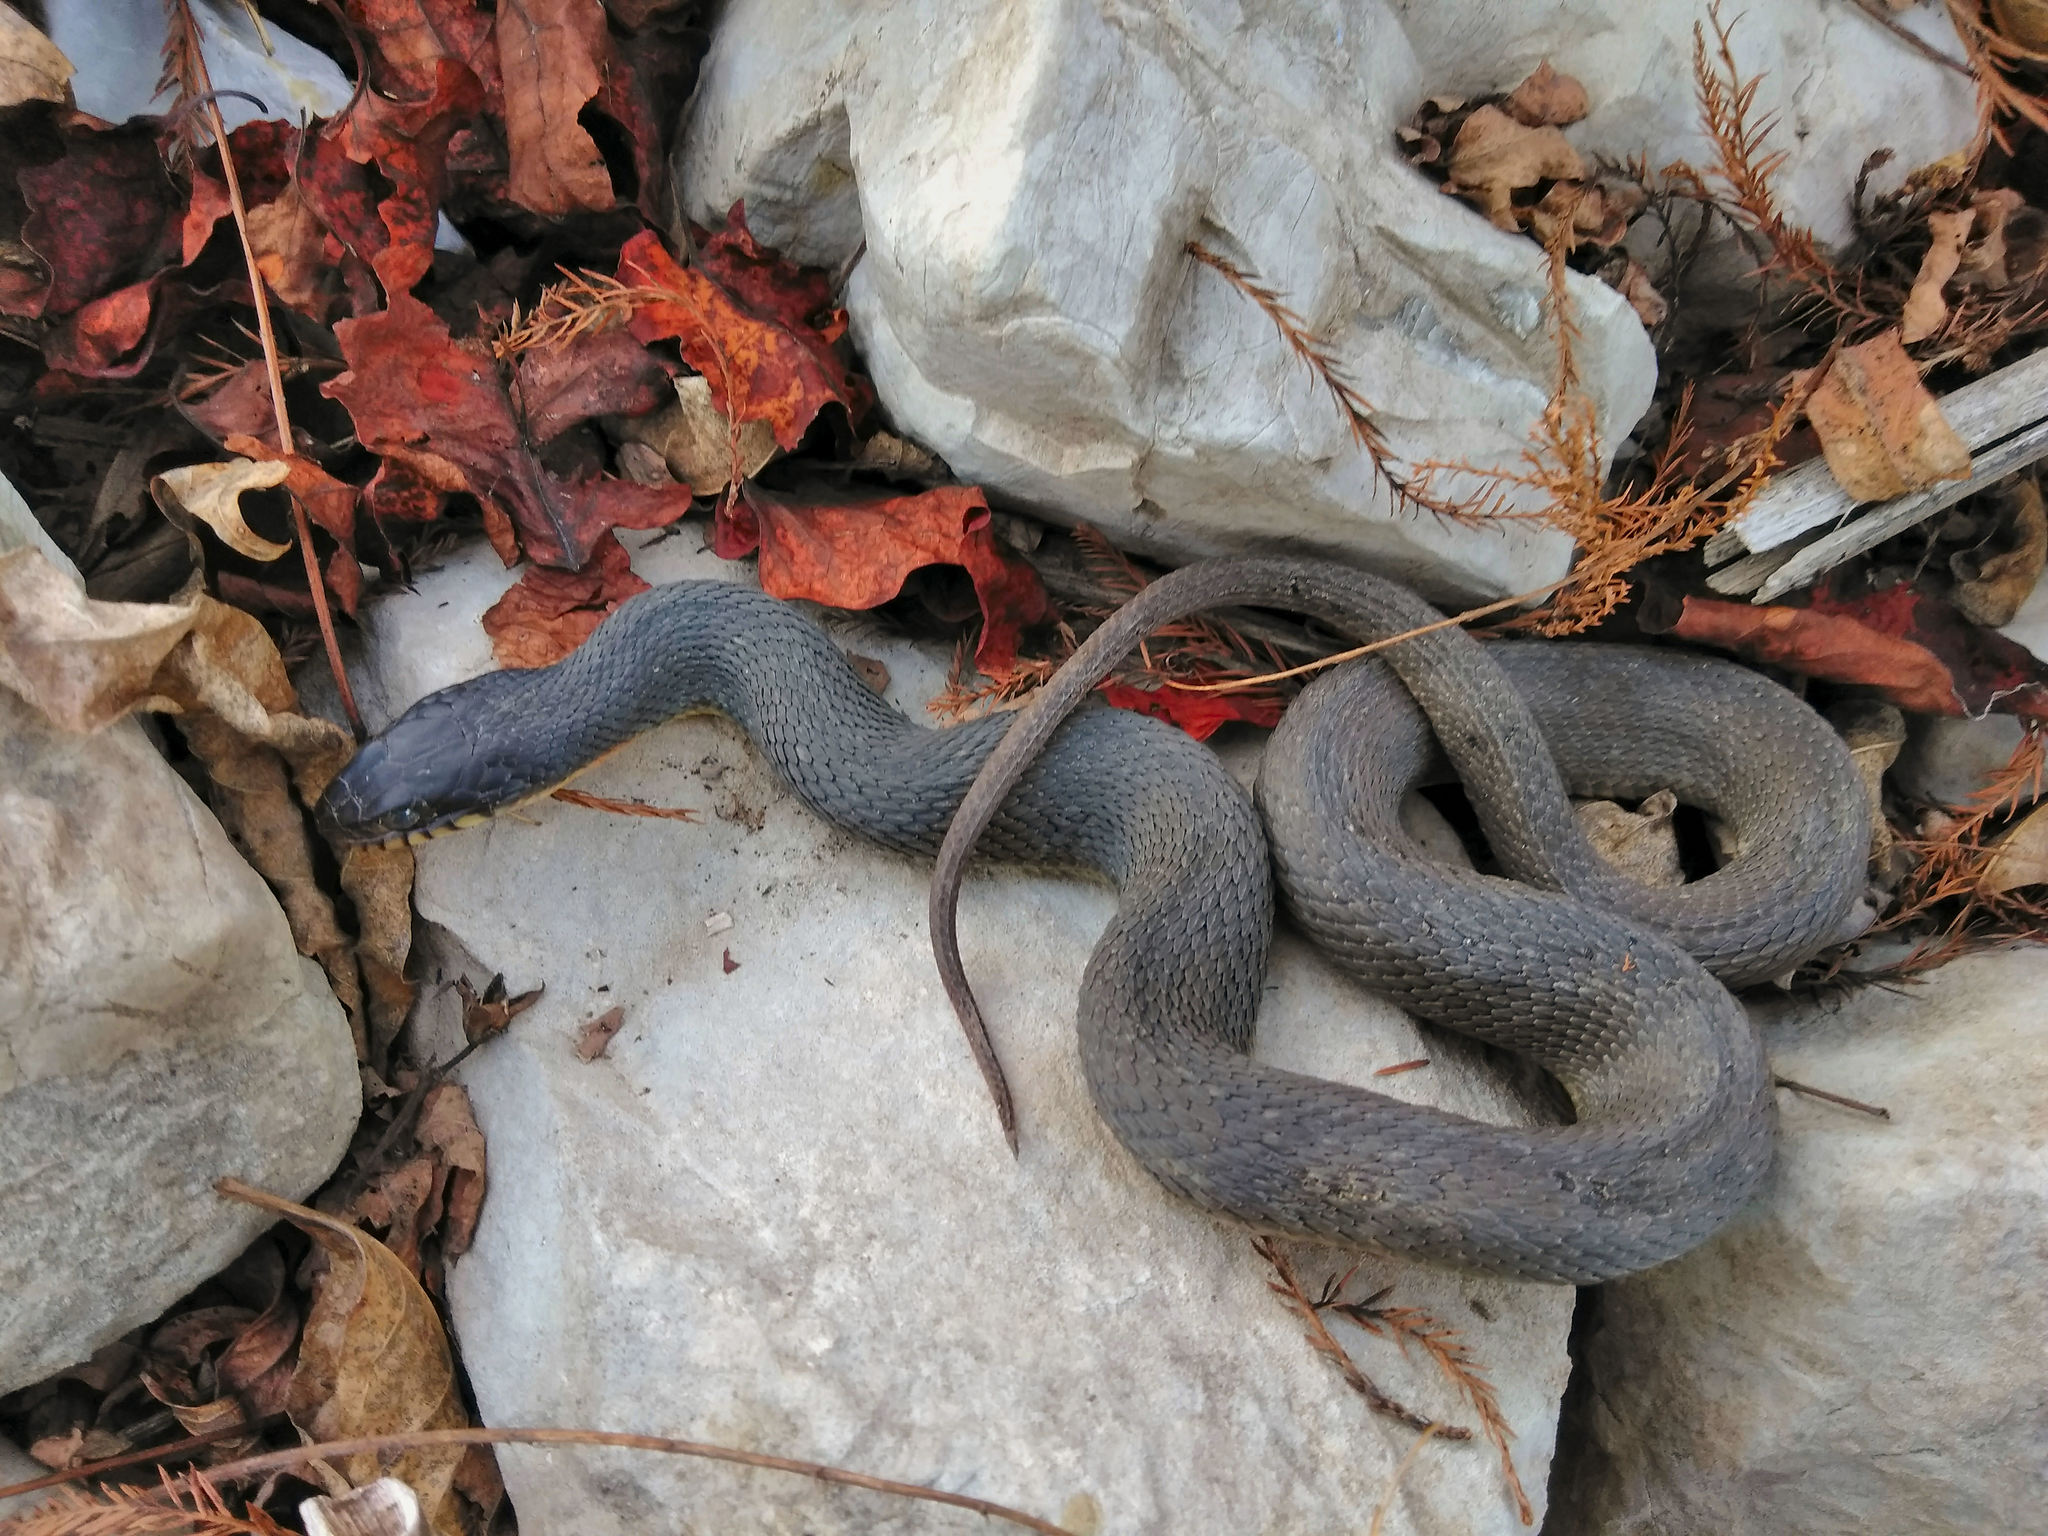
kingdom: Animalia
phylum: Chordata
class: Squamata
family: Colubridae
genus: Nerodia
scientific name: Nerodia erythrogaster
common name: Plainbelly water snake
